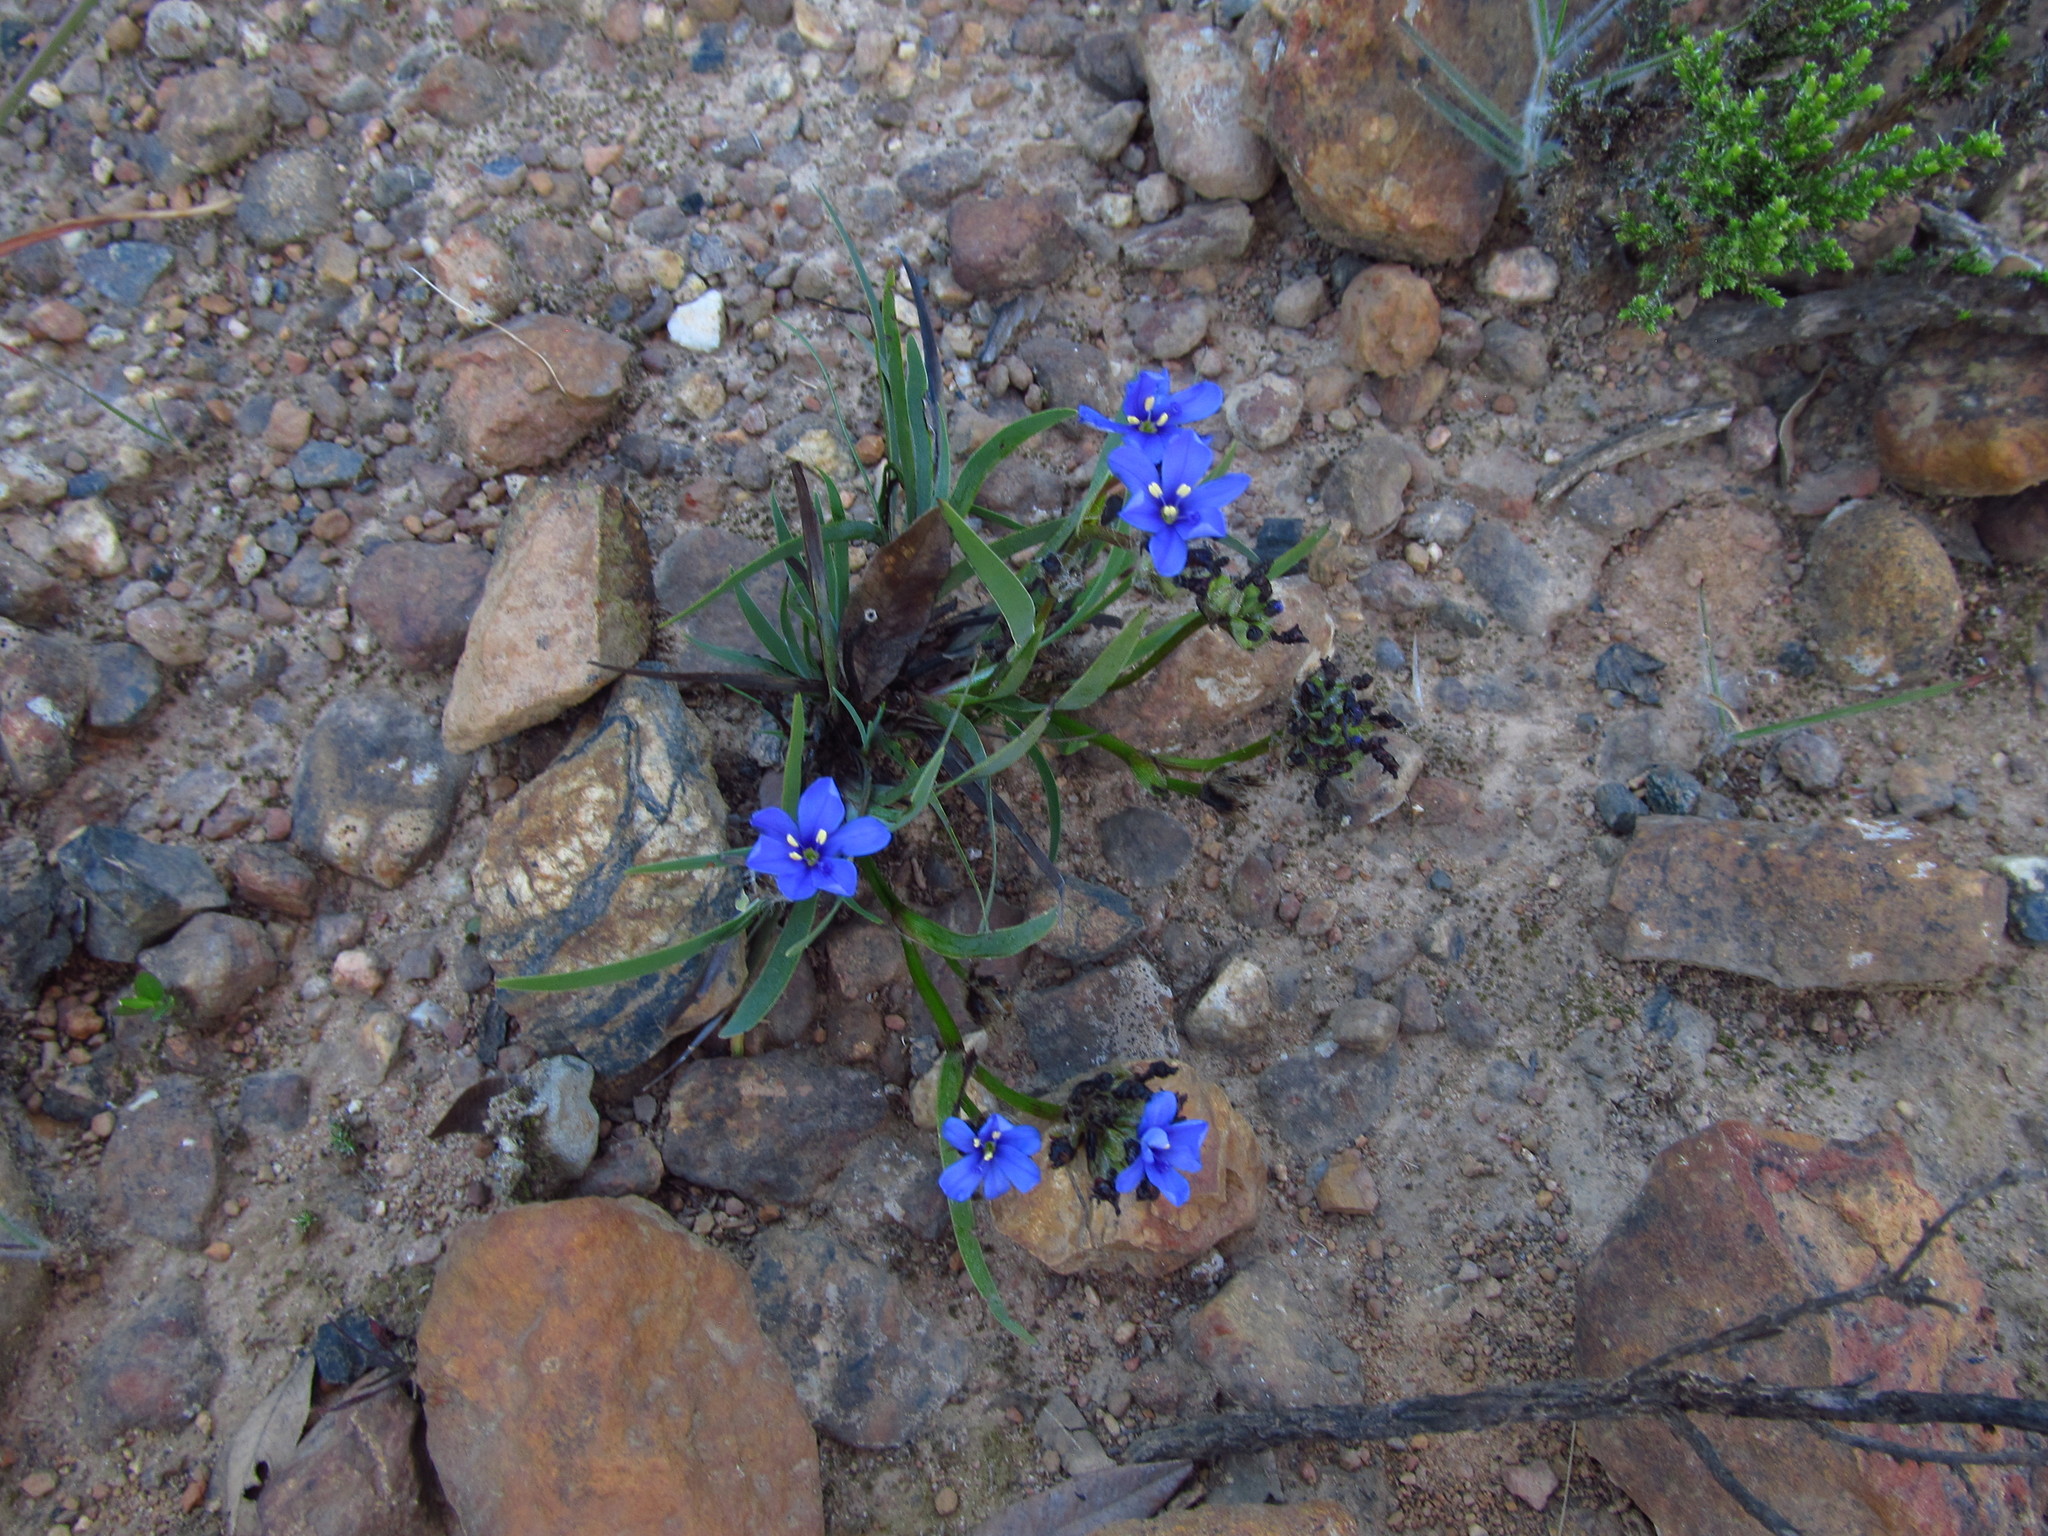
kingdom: Plantae
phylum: Tracheophyta
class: Liliopsida
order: Asparagales
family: Iridaceae
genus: Aristea
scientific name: Aristea africana
